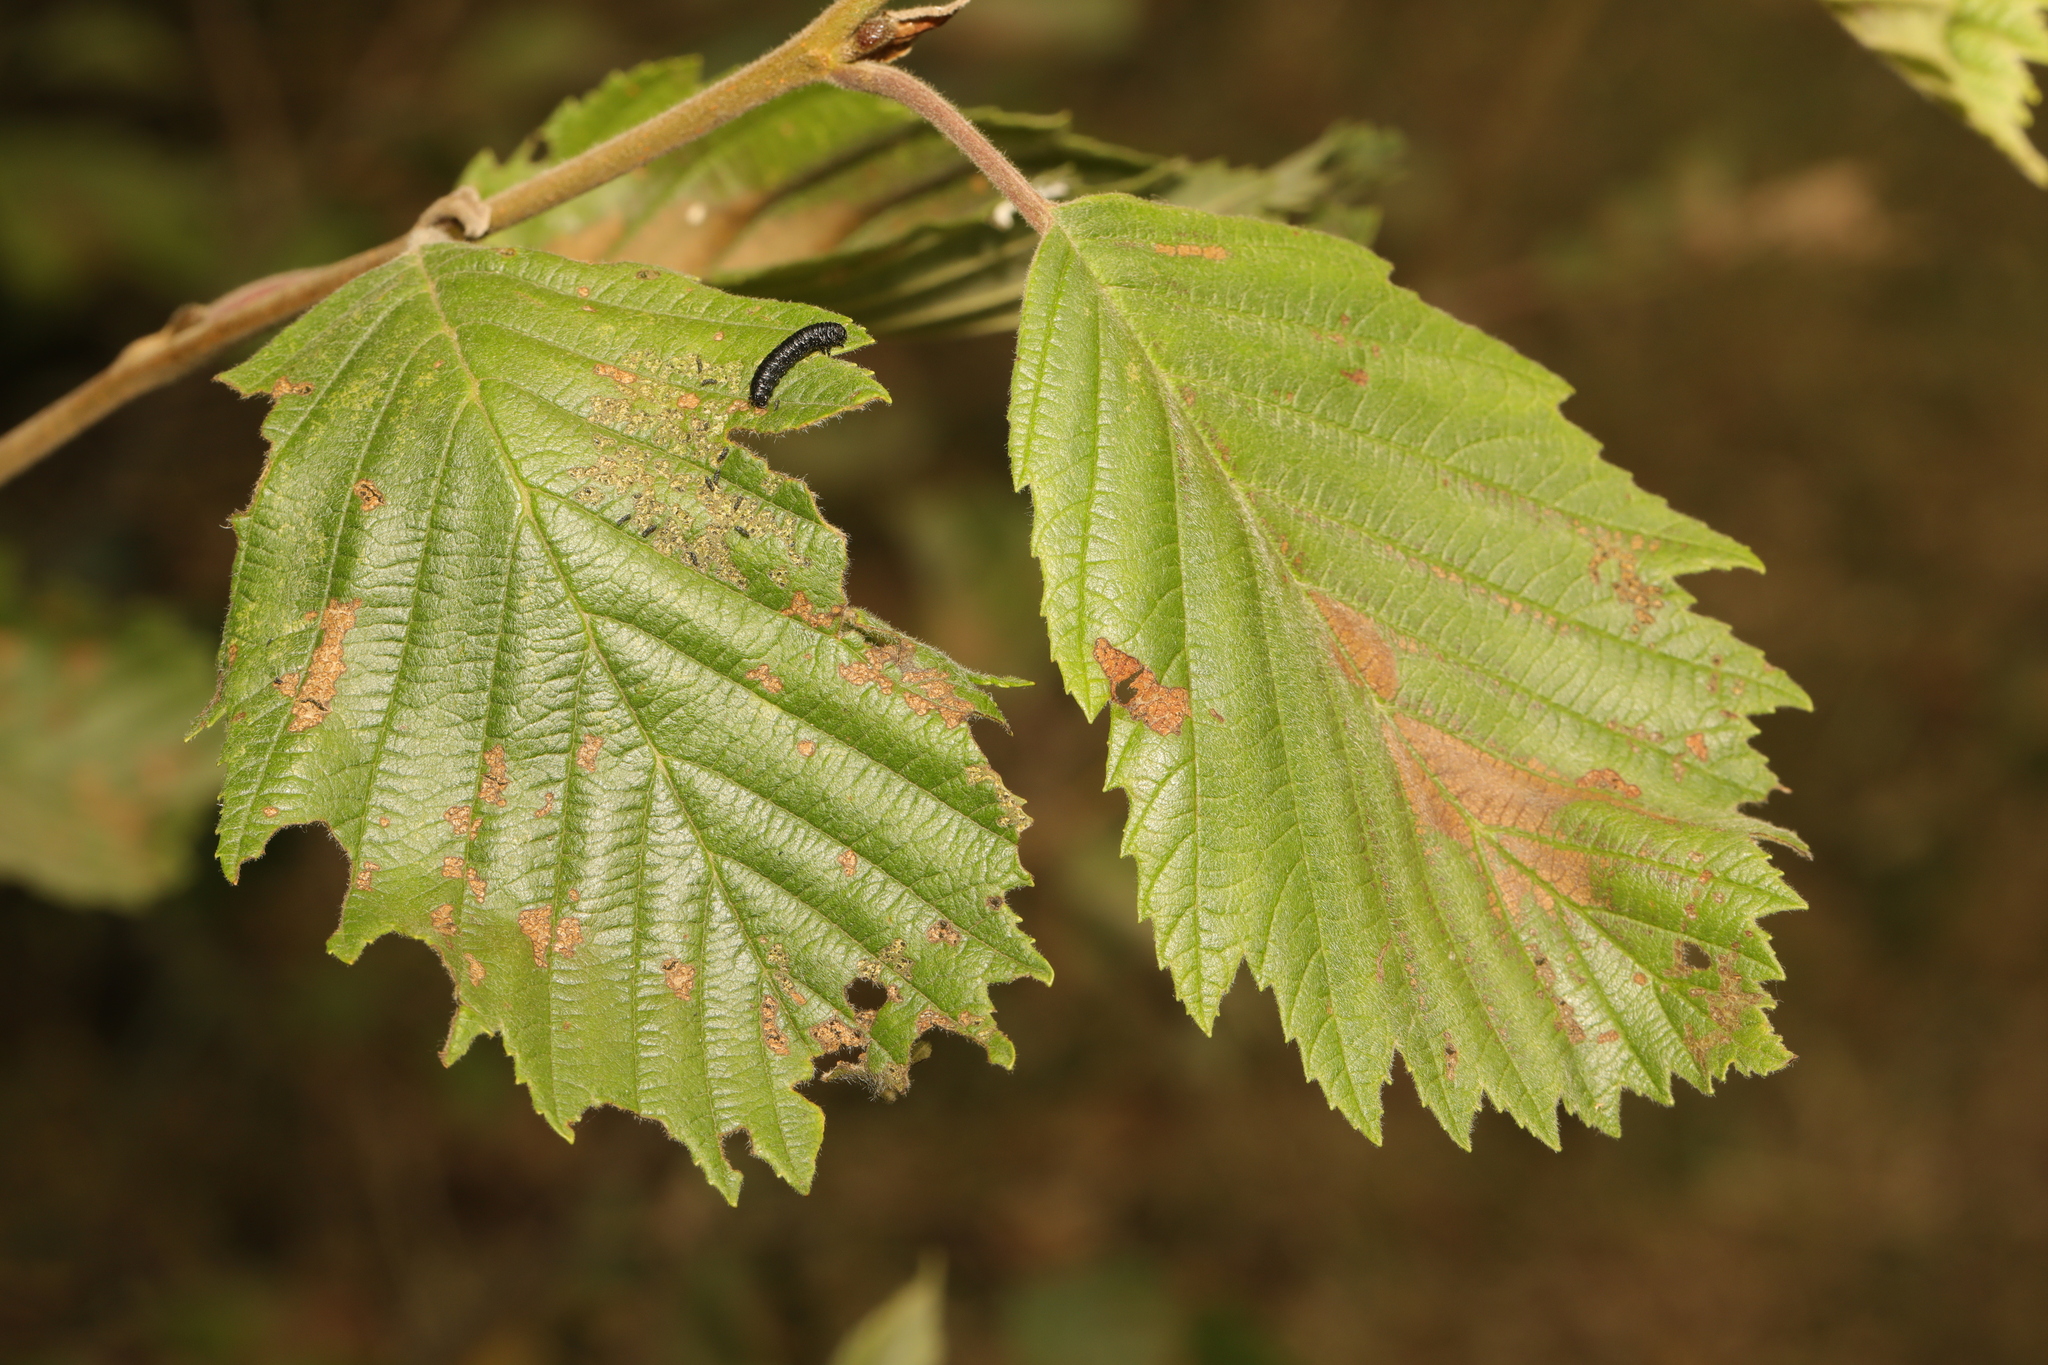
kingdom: Plantae
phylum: Tracheophyta
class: Magnoliopsida
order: Fagales
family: Betulaceae
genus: Alnus
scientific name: Alnus incana
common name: Grey alder
